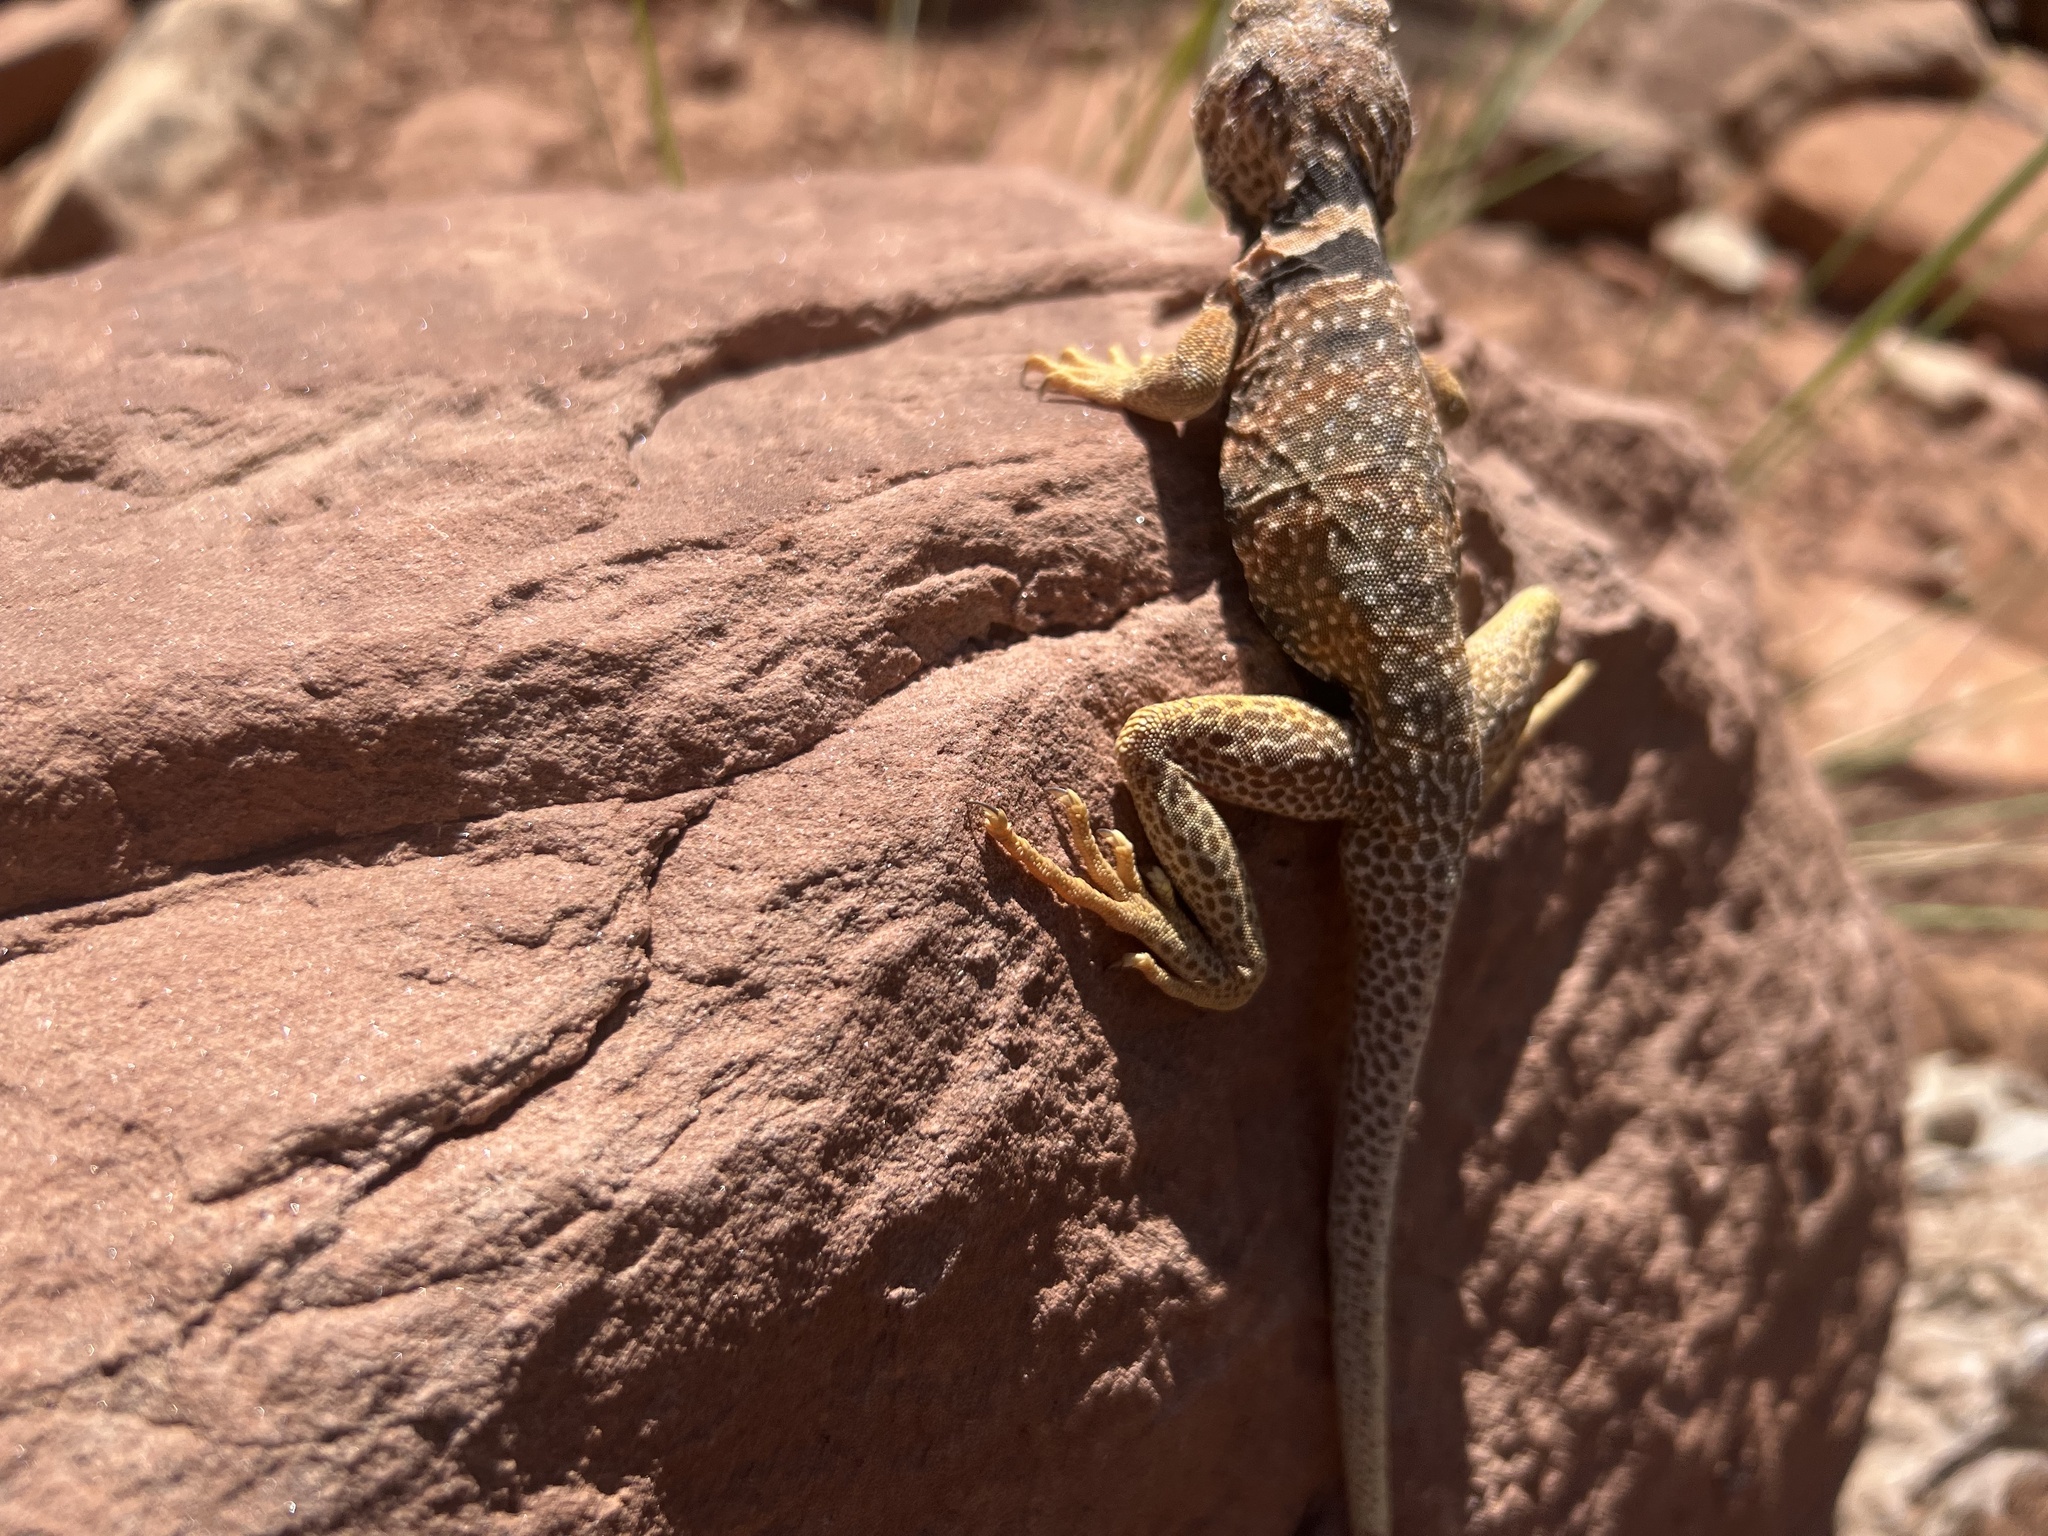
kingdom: Animalia
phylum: Chordata
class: Squamata
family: Crotaphytidae
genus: Crotaphytus
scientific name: Crotaphytus bicinctores
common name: Mojave black-collared lizard
